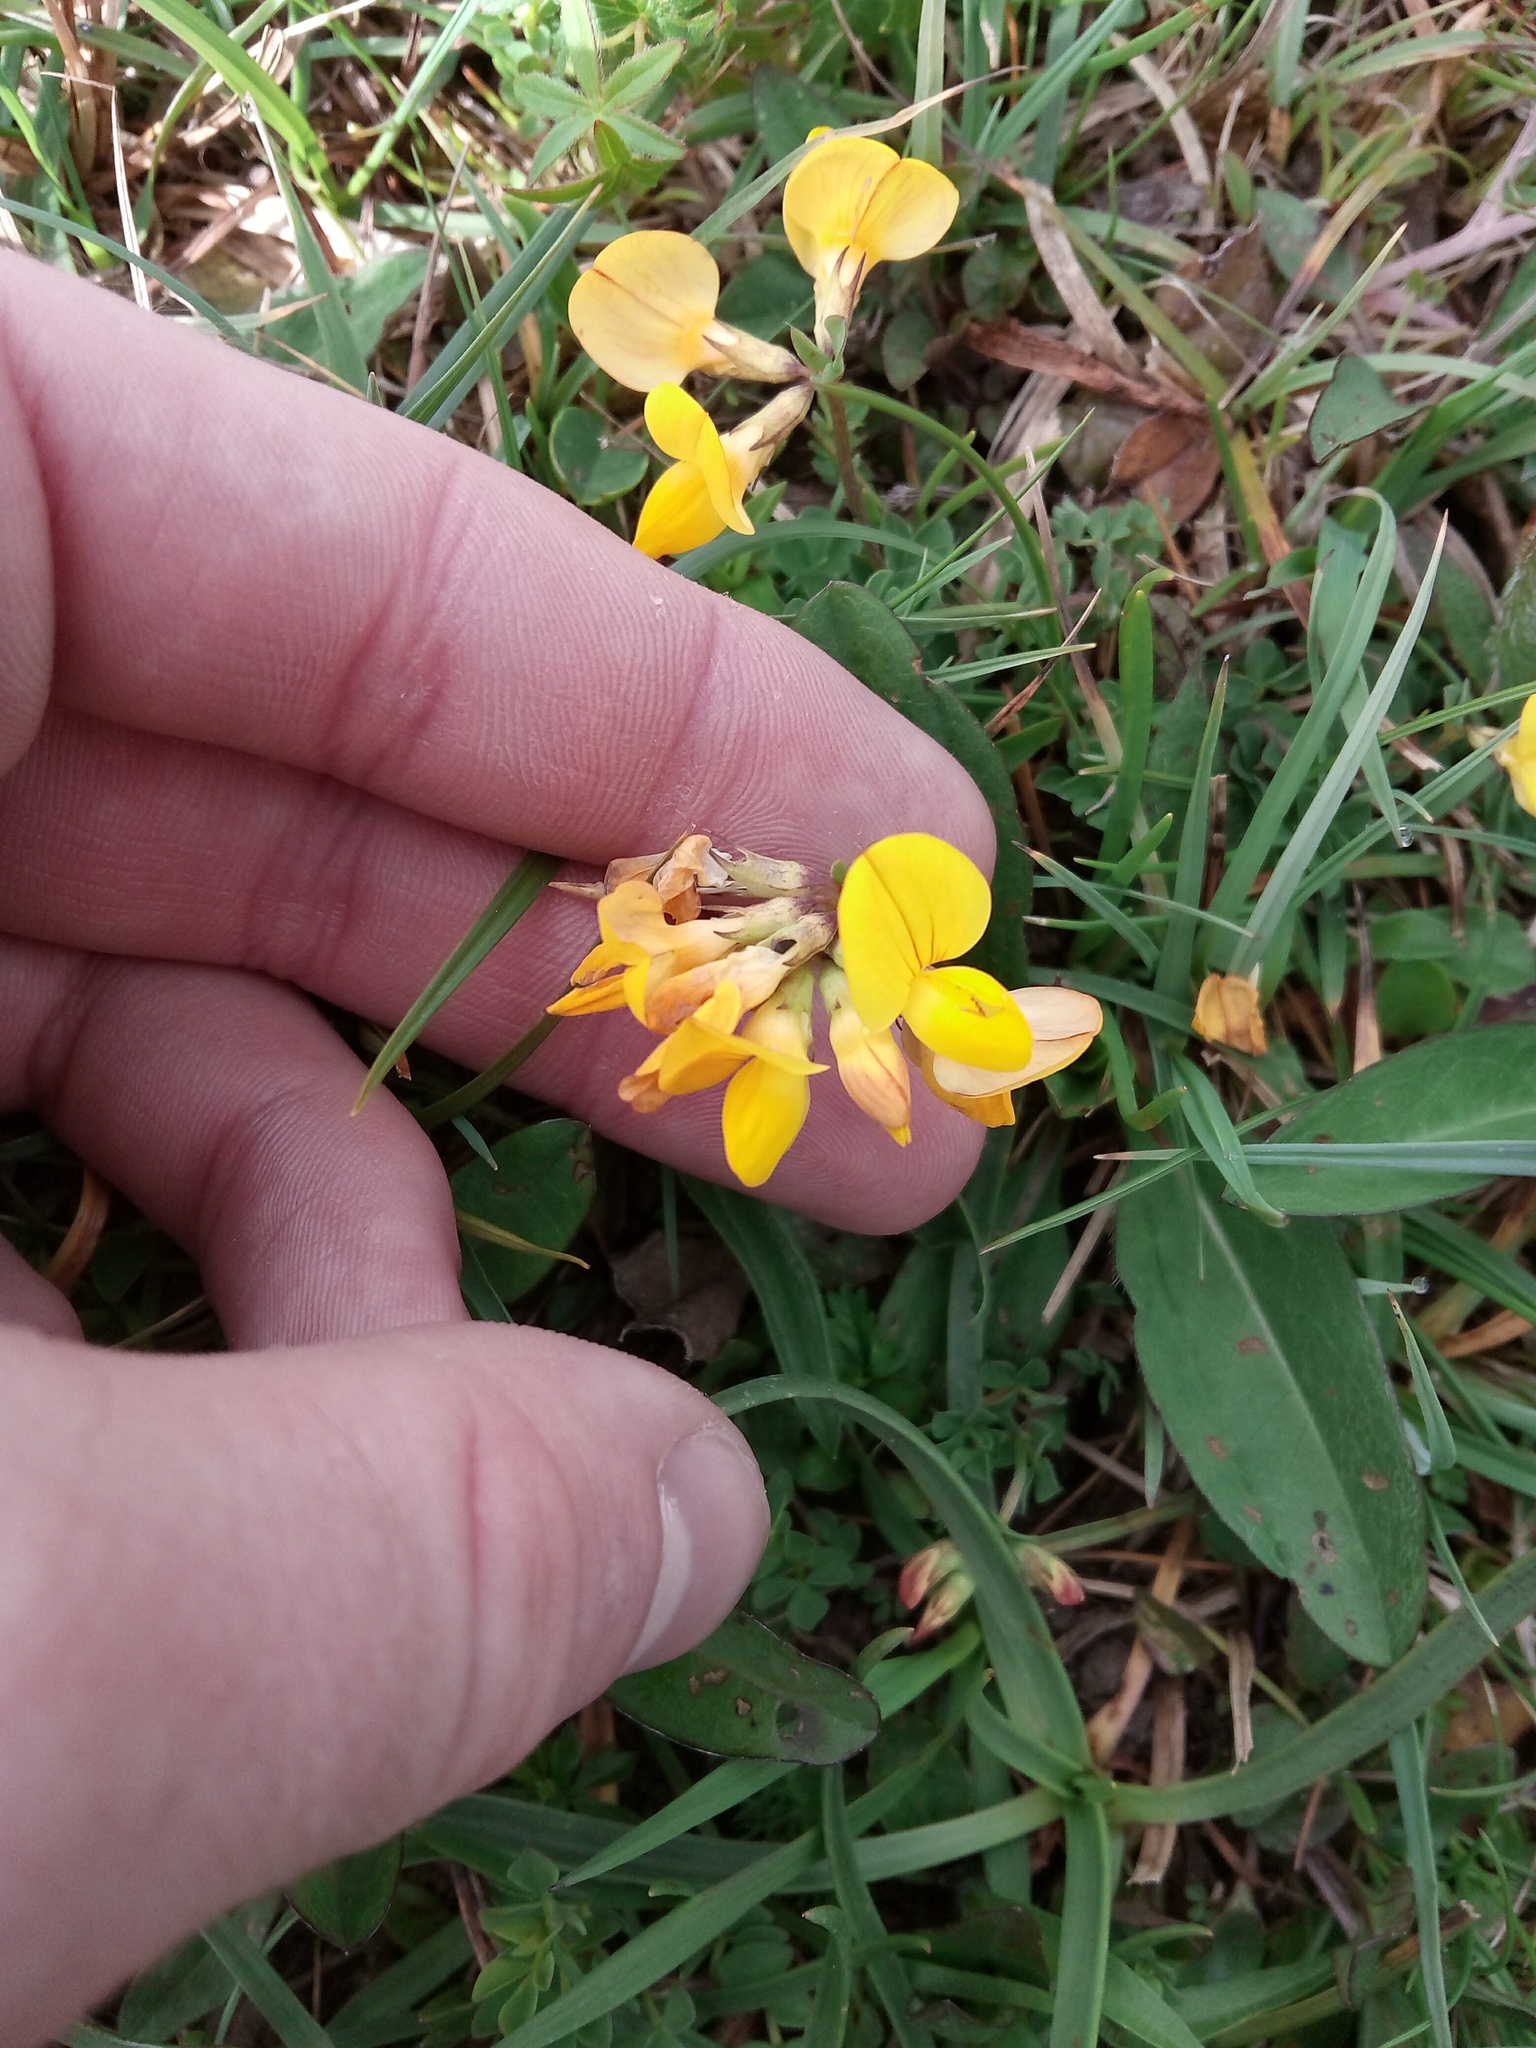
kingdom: Plantae
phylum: Tracheophyta
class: Magnoliopsida
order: Fabales
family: Fabaceae
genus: Lotus
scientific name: Lotus corniculatus
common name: Common bird's-foot-trefoil
